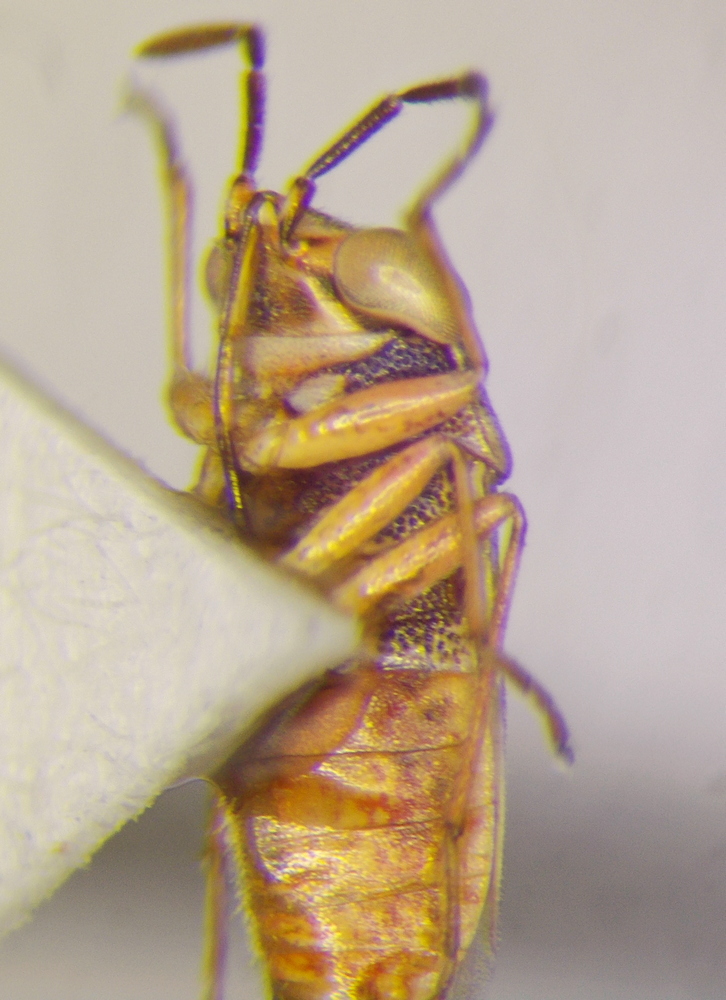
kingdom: Animalia
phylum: Arthropoda
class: Insecta
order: Hemiptera
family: Geocoridae
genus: Geocoris
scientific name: Geocoris pallens
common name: Big-eyed bug
